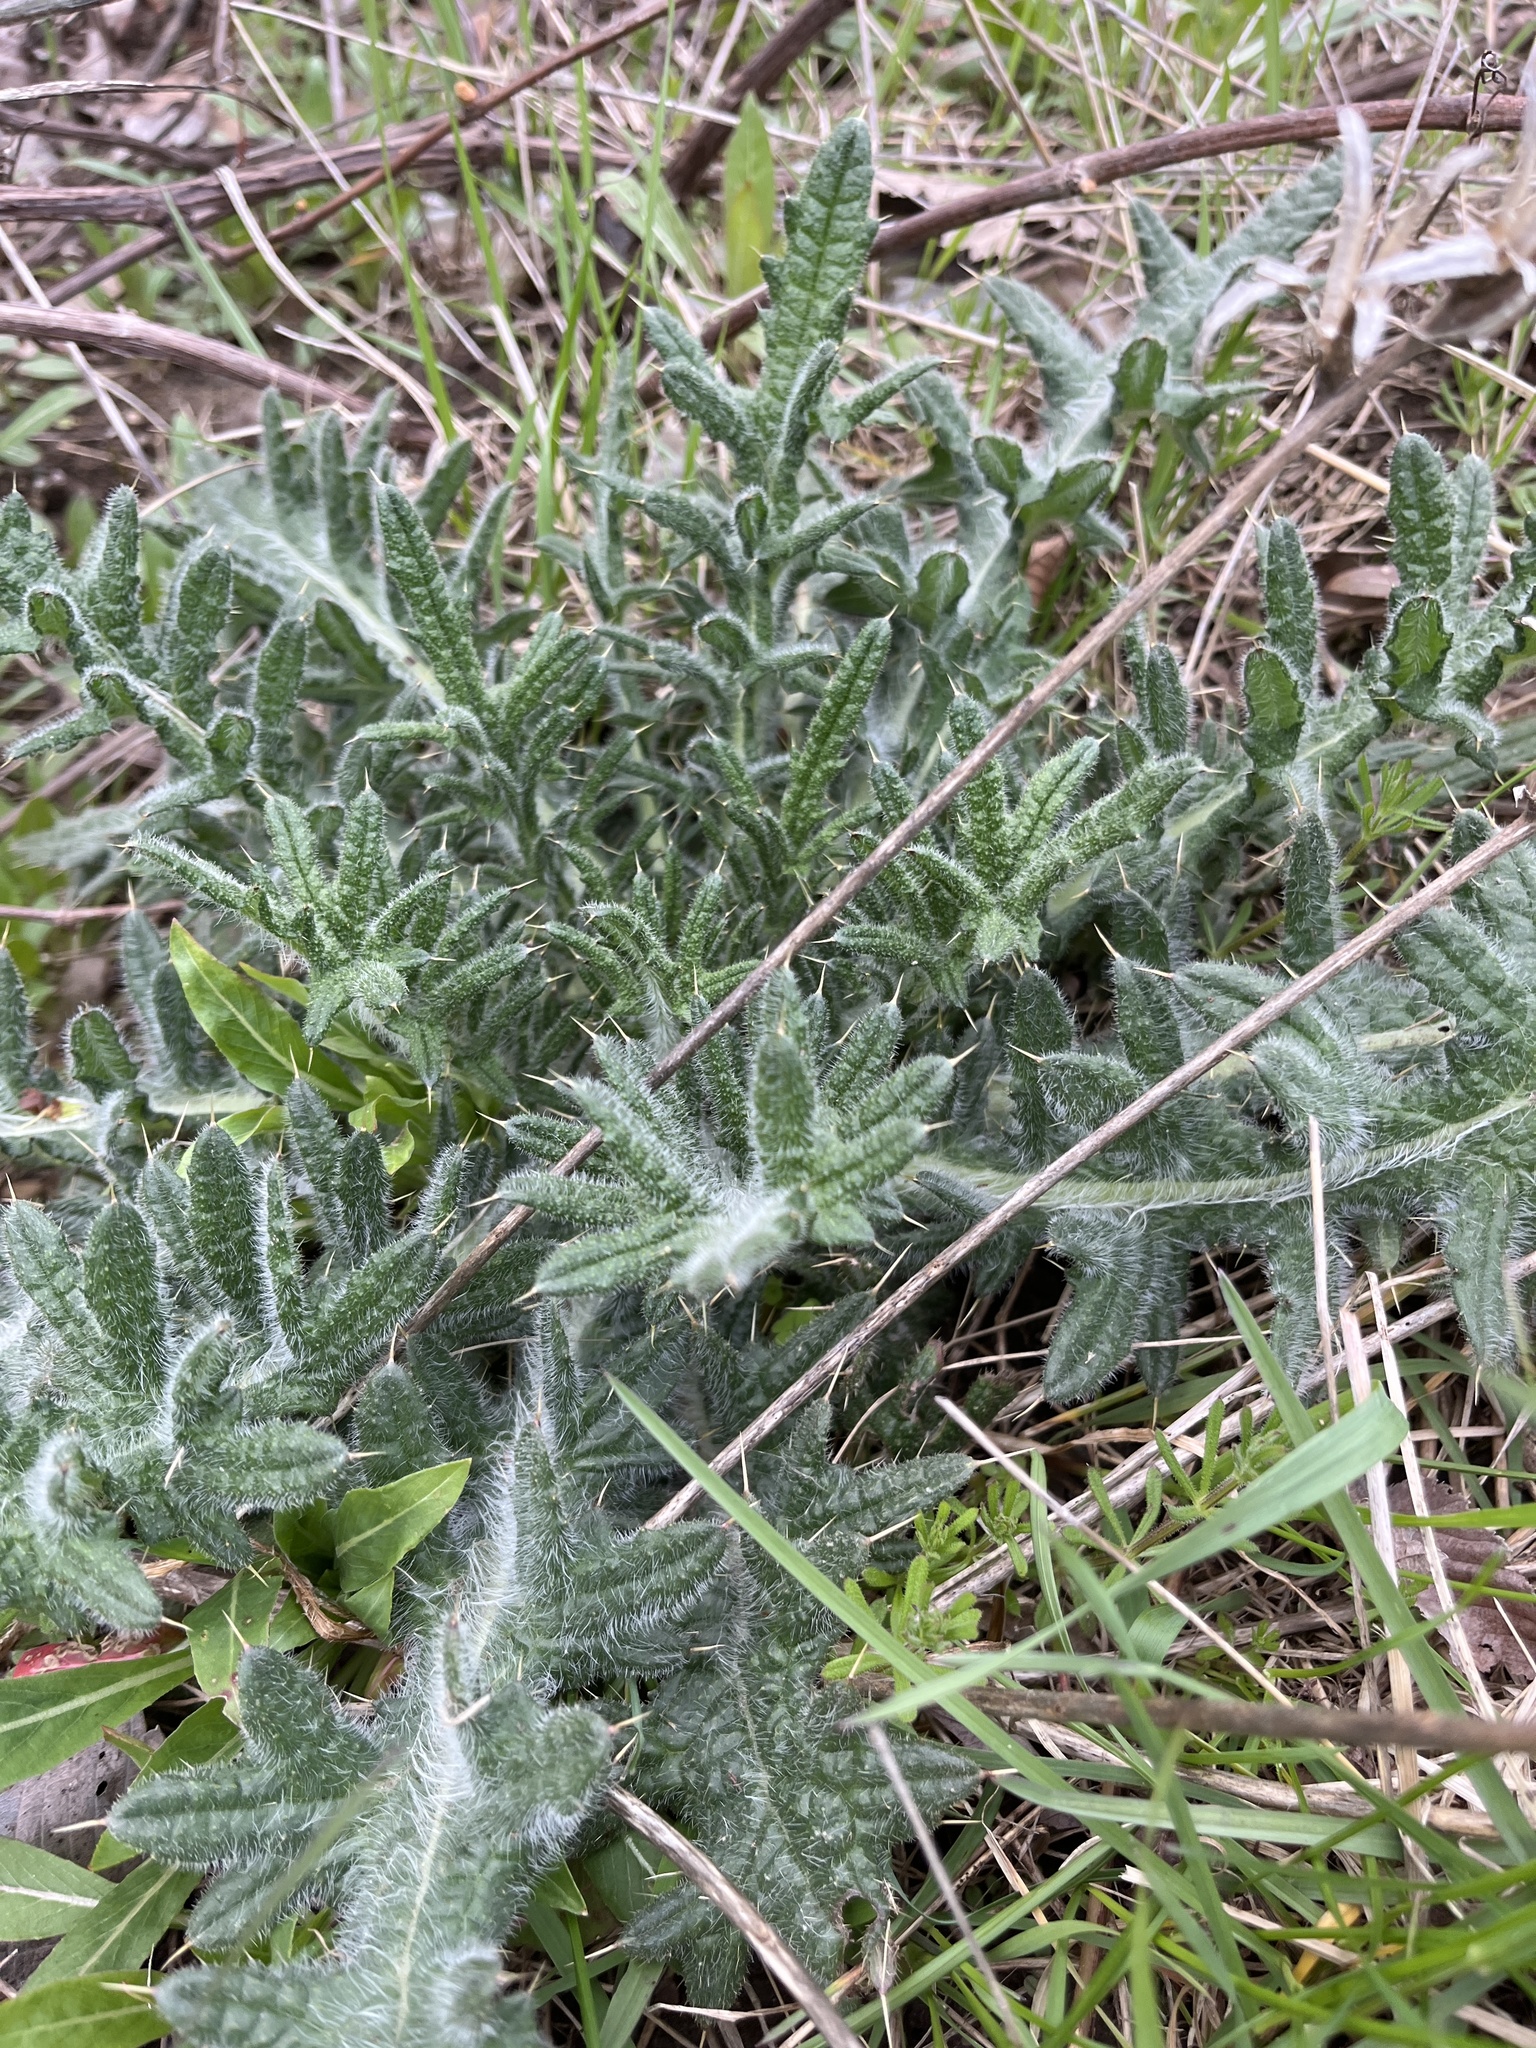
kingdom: Plantae
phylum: Tracheophyta
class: Magnoliopsida
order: Asterales
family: Asteraceae
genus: Cirsium
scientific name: Cirsium vulgare
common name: Bull thistle
